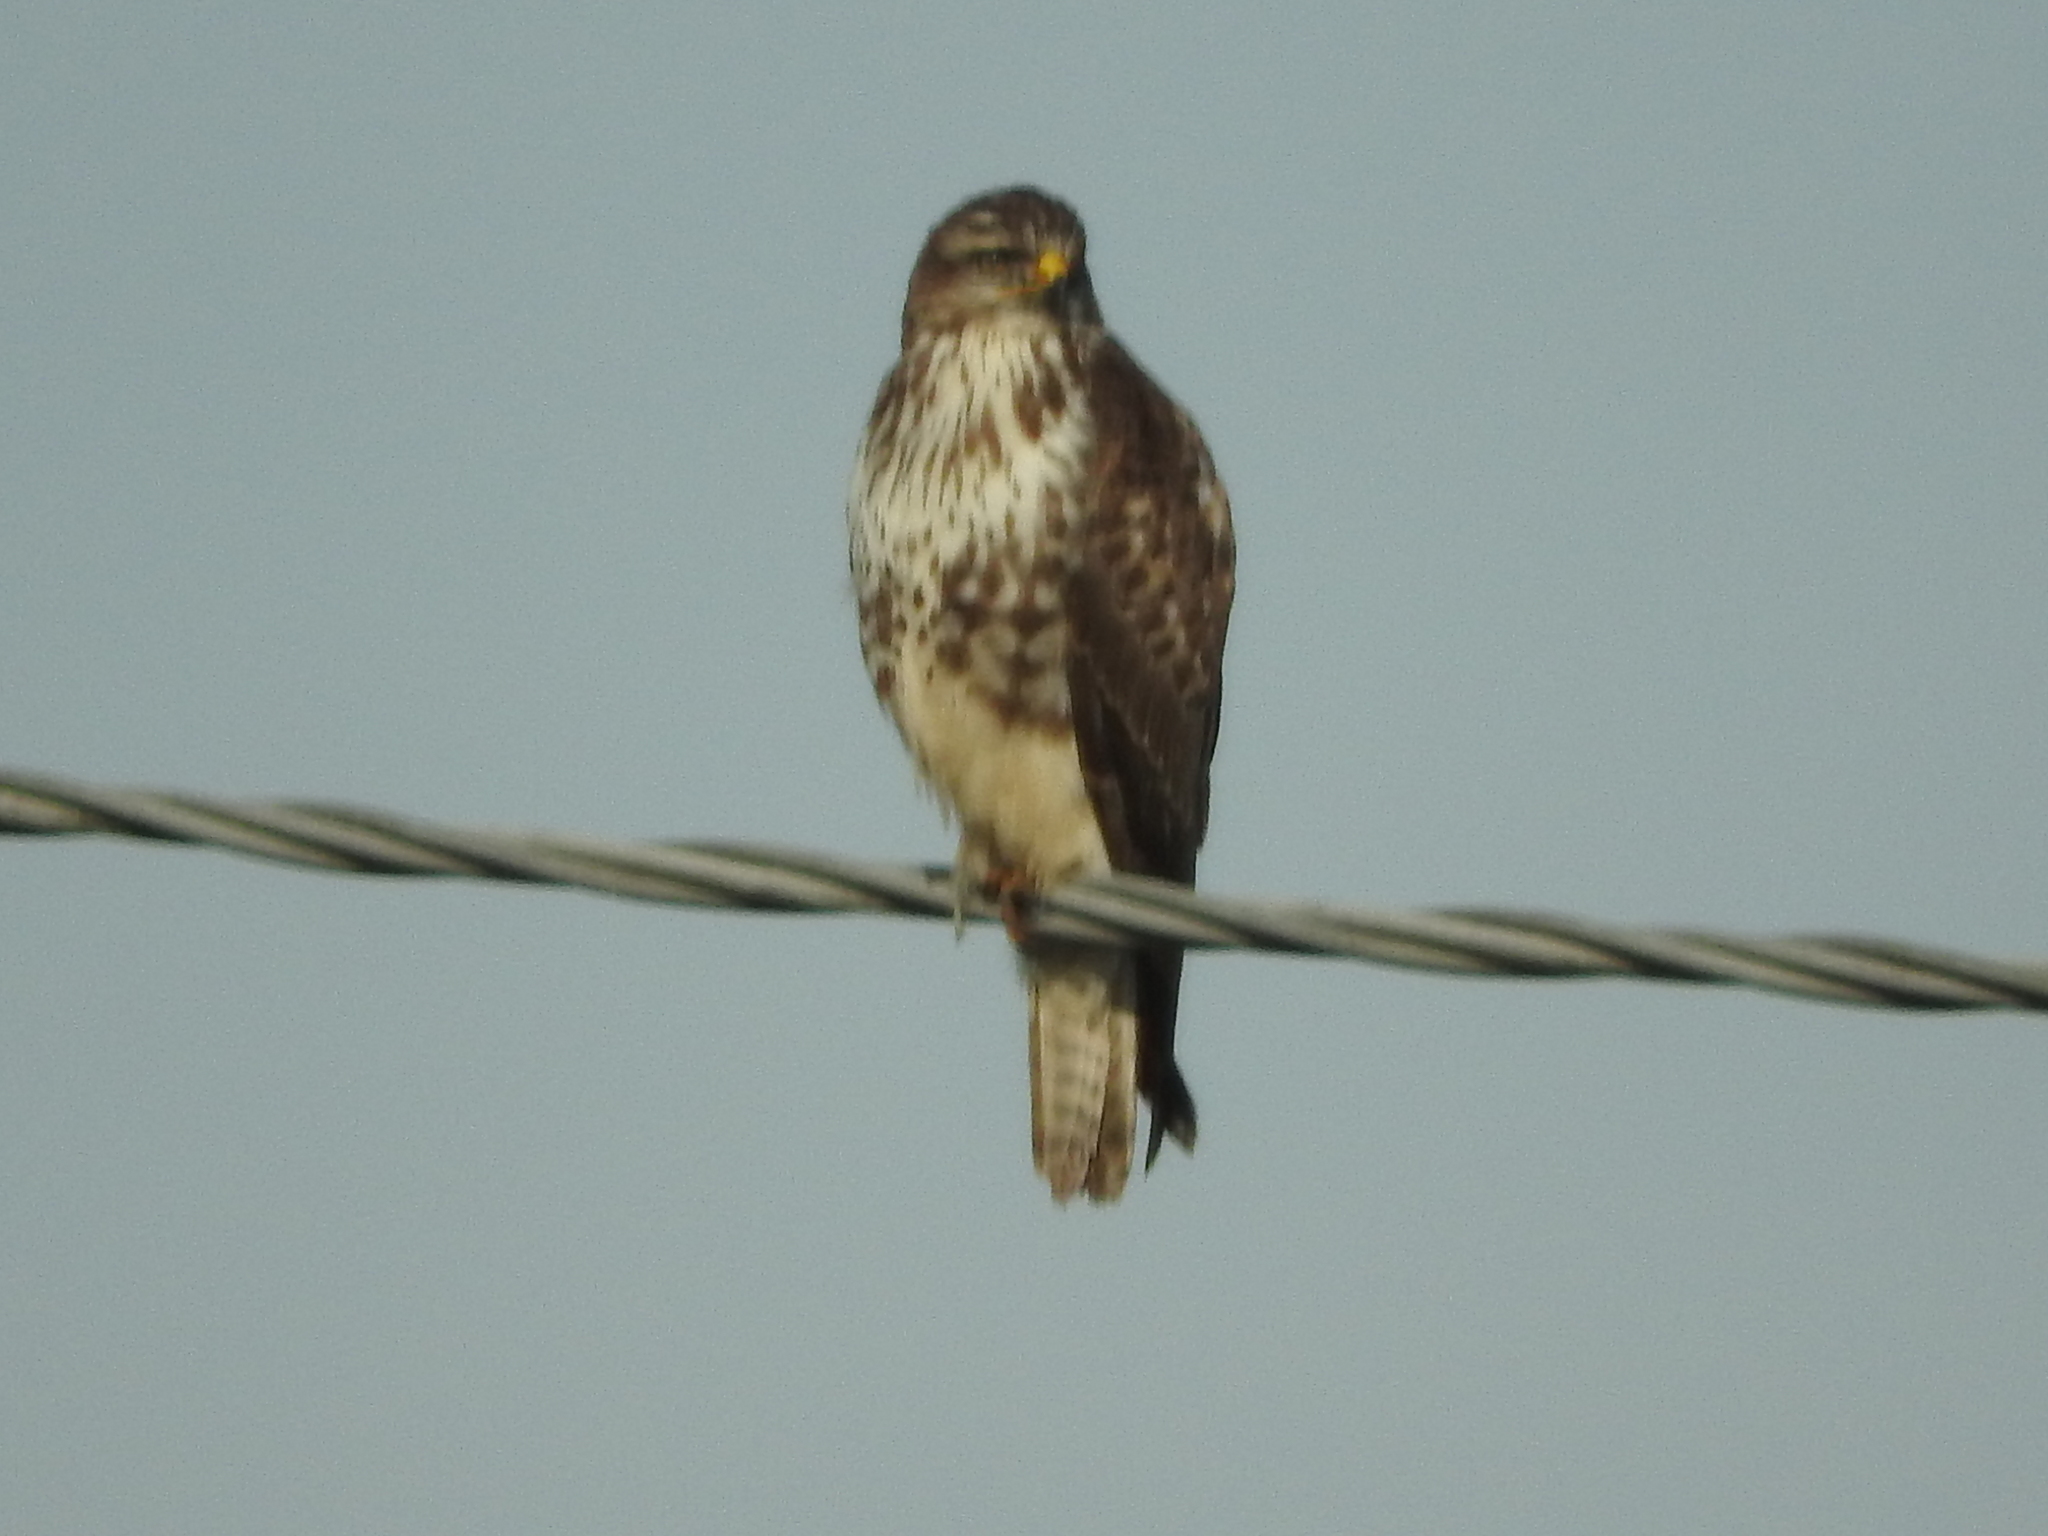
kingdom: Animalia
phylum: Chordata
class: Aves
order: Accipitriformes
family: Accipitridae
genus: Buteo
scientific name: Buteo buteo
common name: Common buzzard
